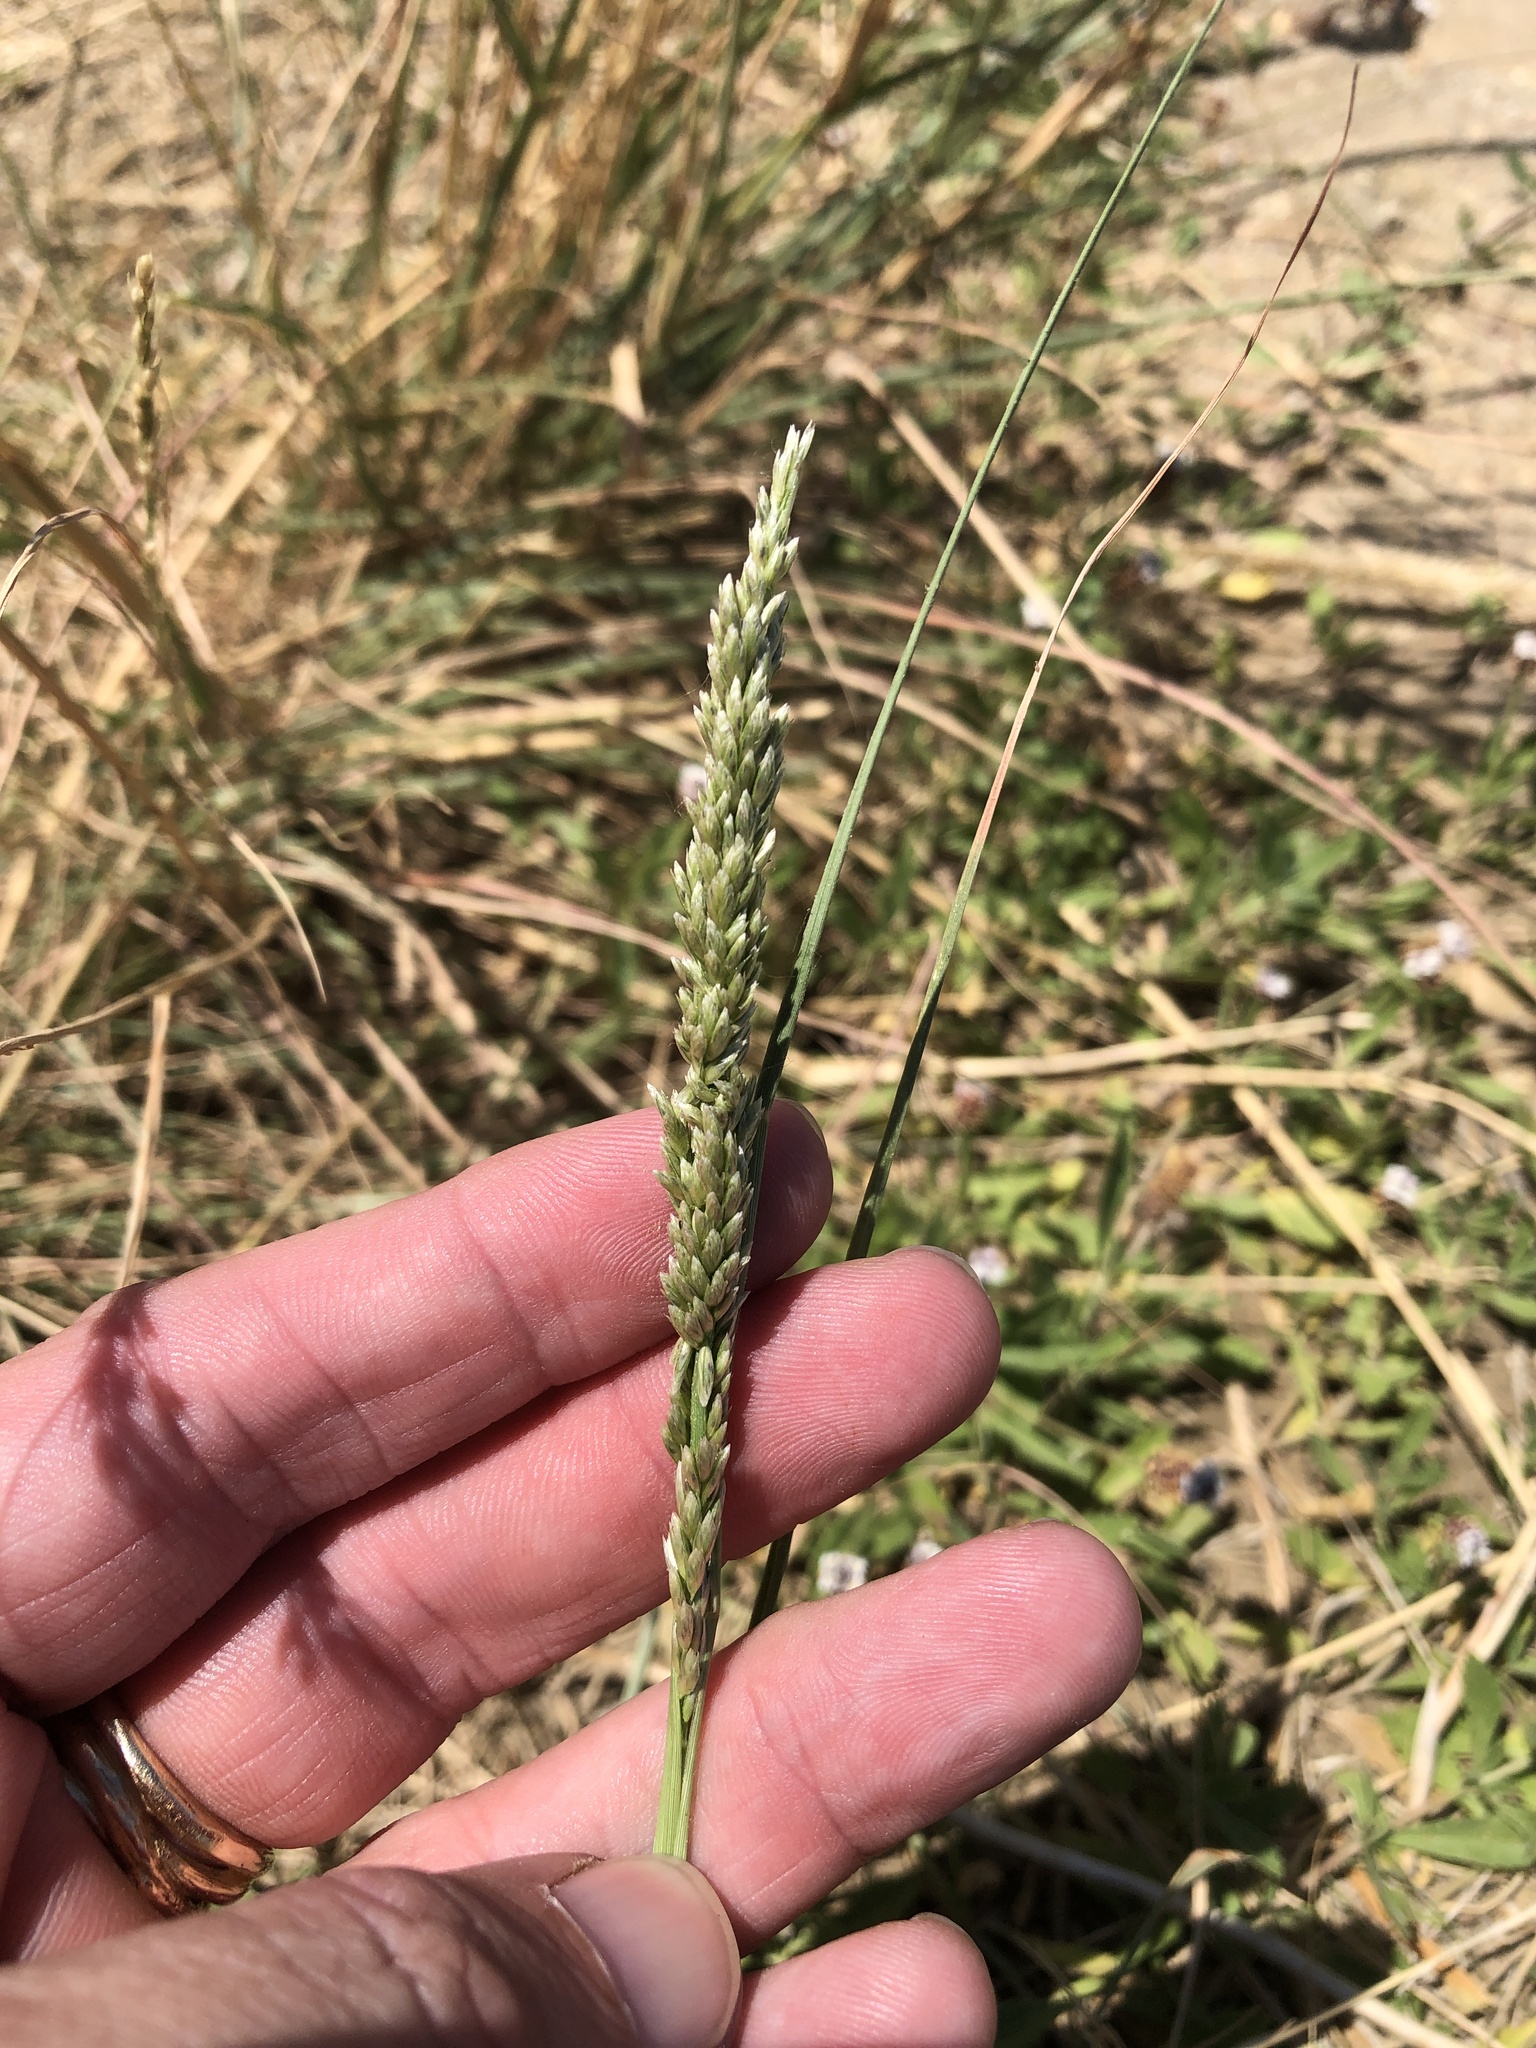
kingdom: Plantae
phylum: Tracheophyta
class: Liliopsida
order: Poales
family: Poaceae
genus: Tridens
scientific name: Tridens albescens
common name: White tridens
